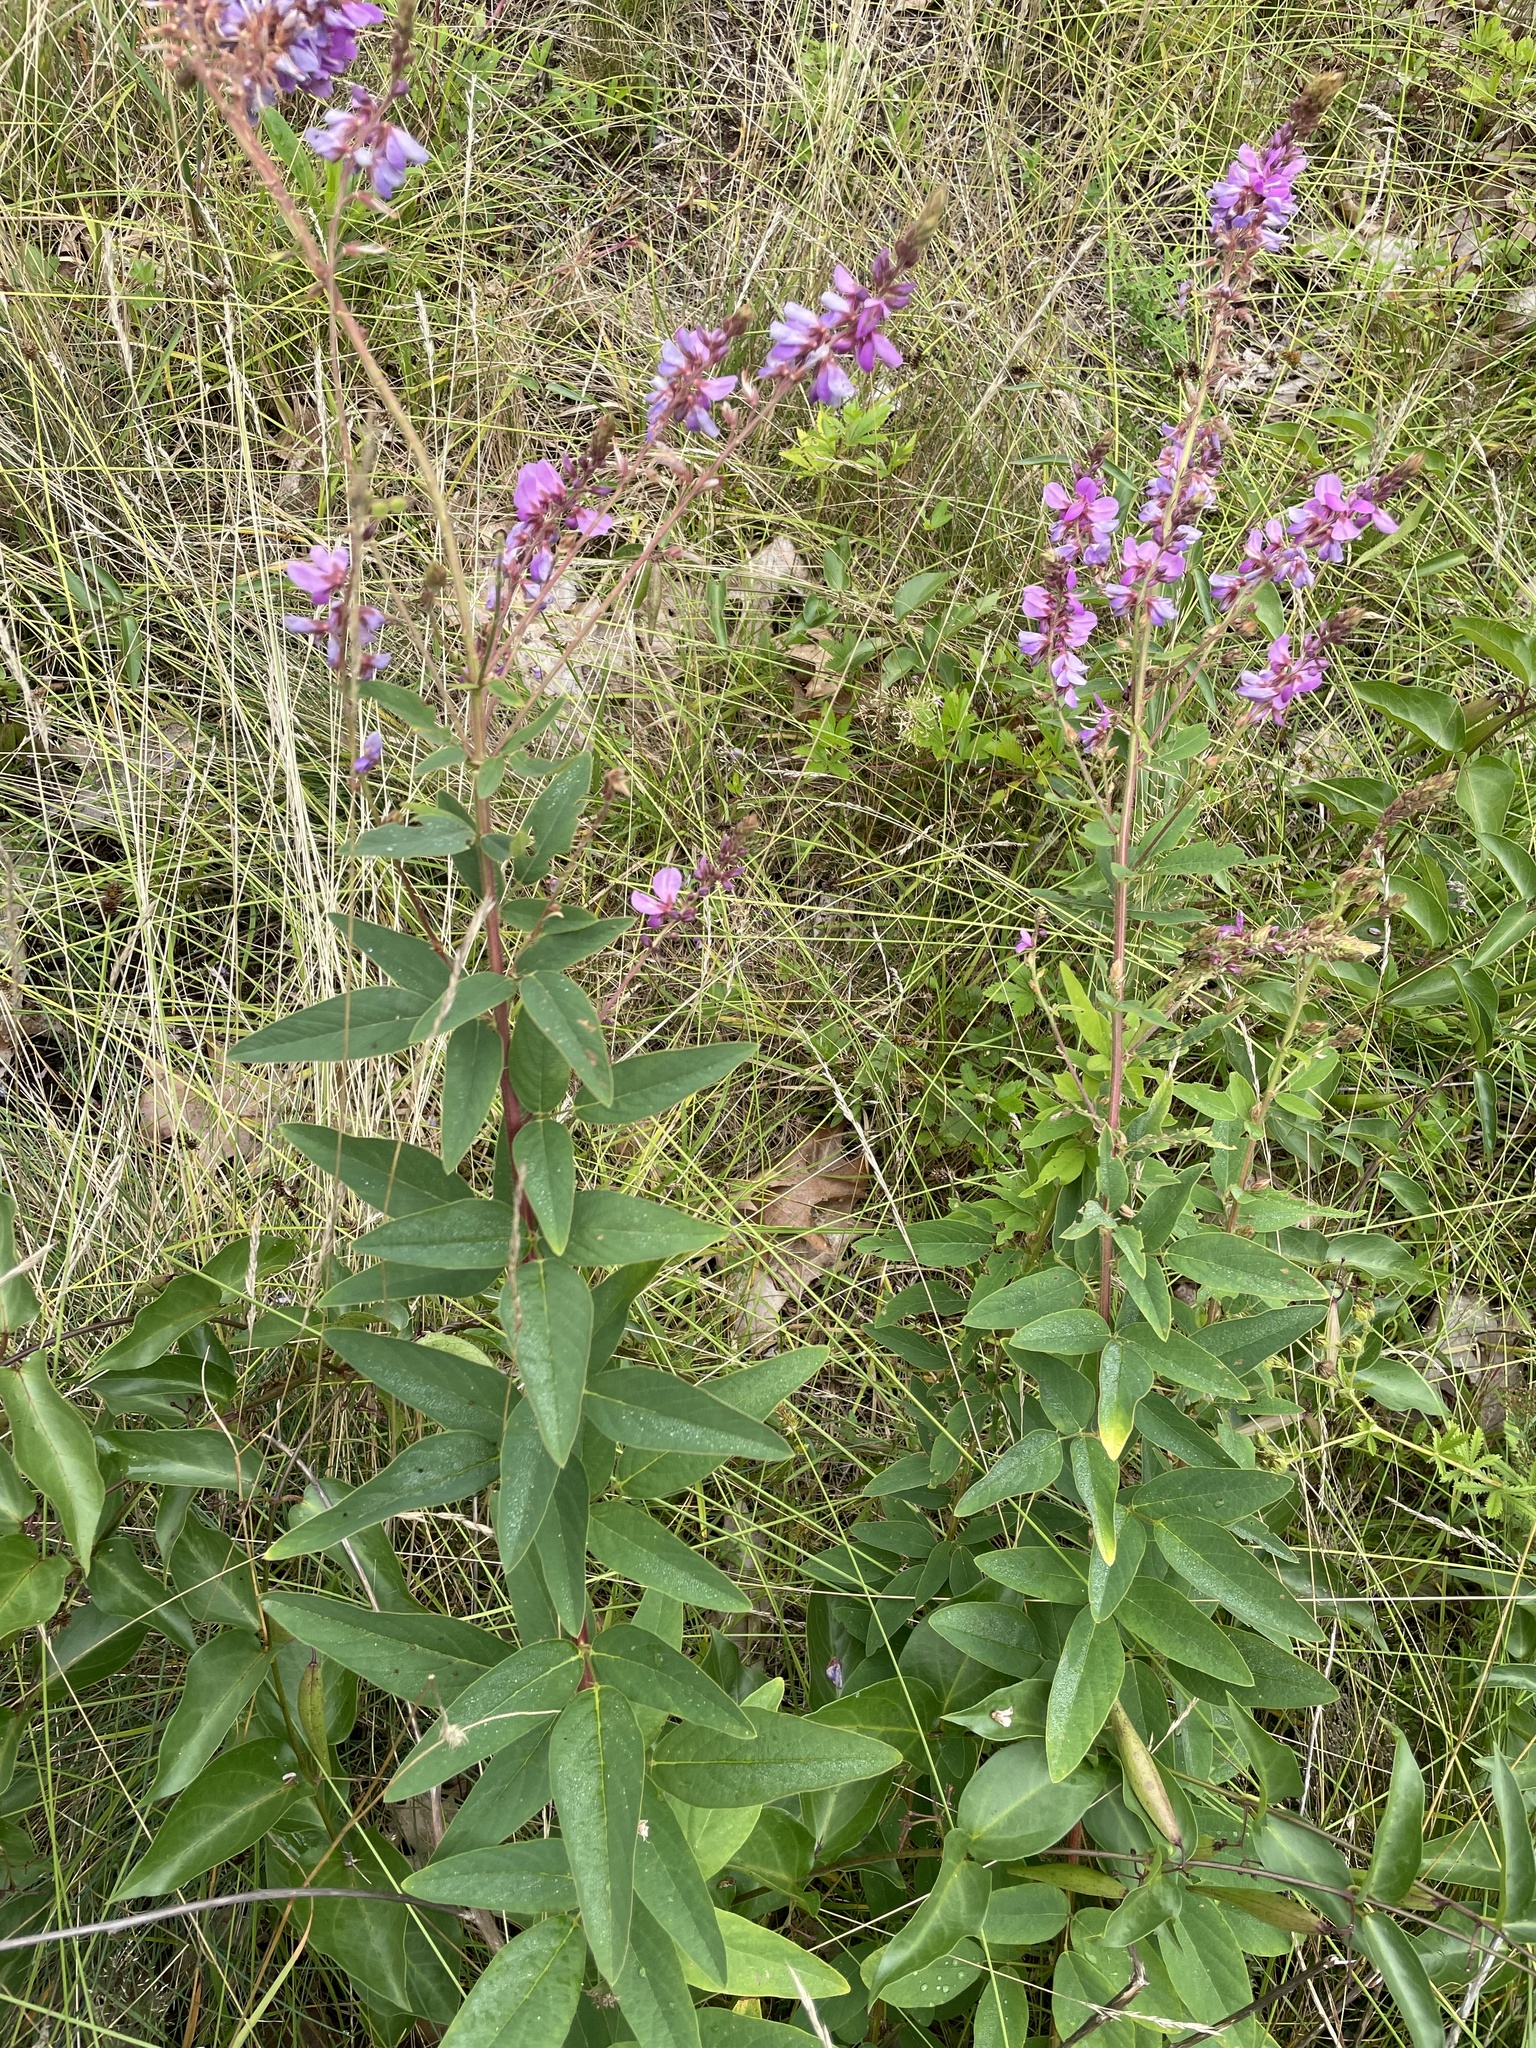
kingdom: Plantae
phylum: Tracheophyta
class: Magnoliopsida
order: Fabales
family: Fabaceae
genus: Desmodium
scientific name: Desmodium canadense
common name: Canada tick-trefoil
